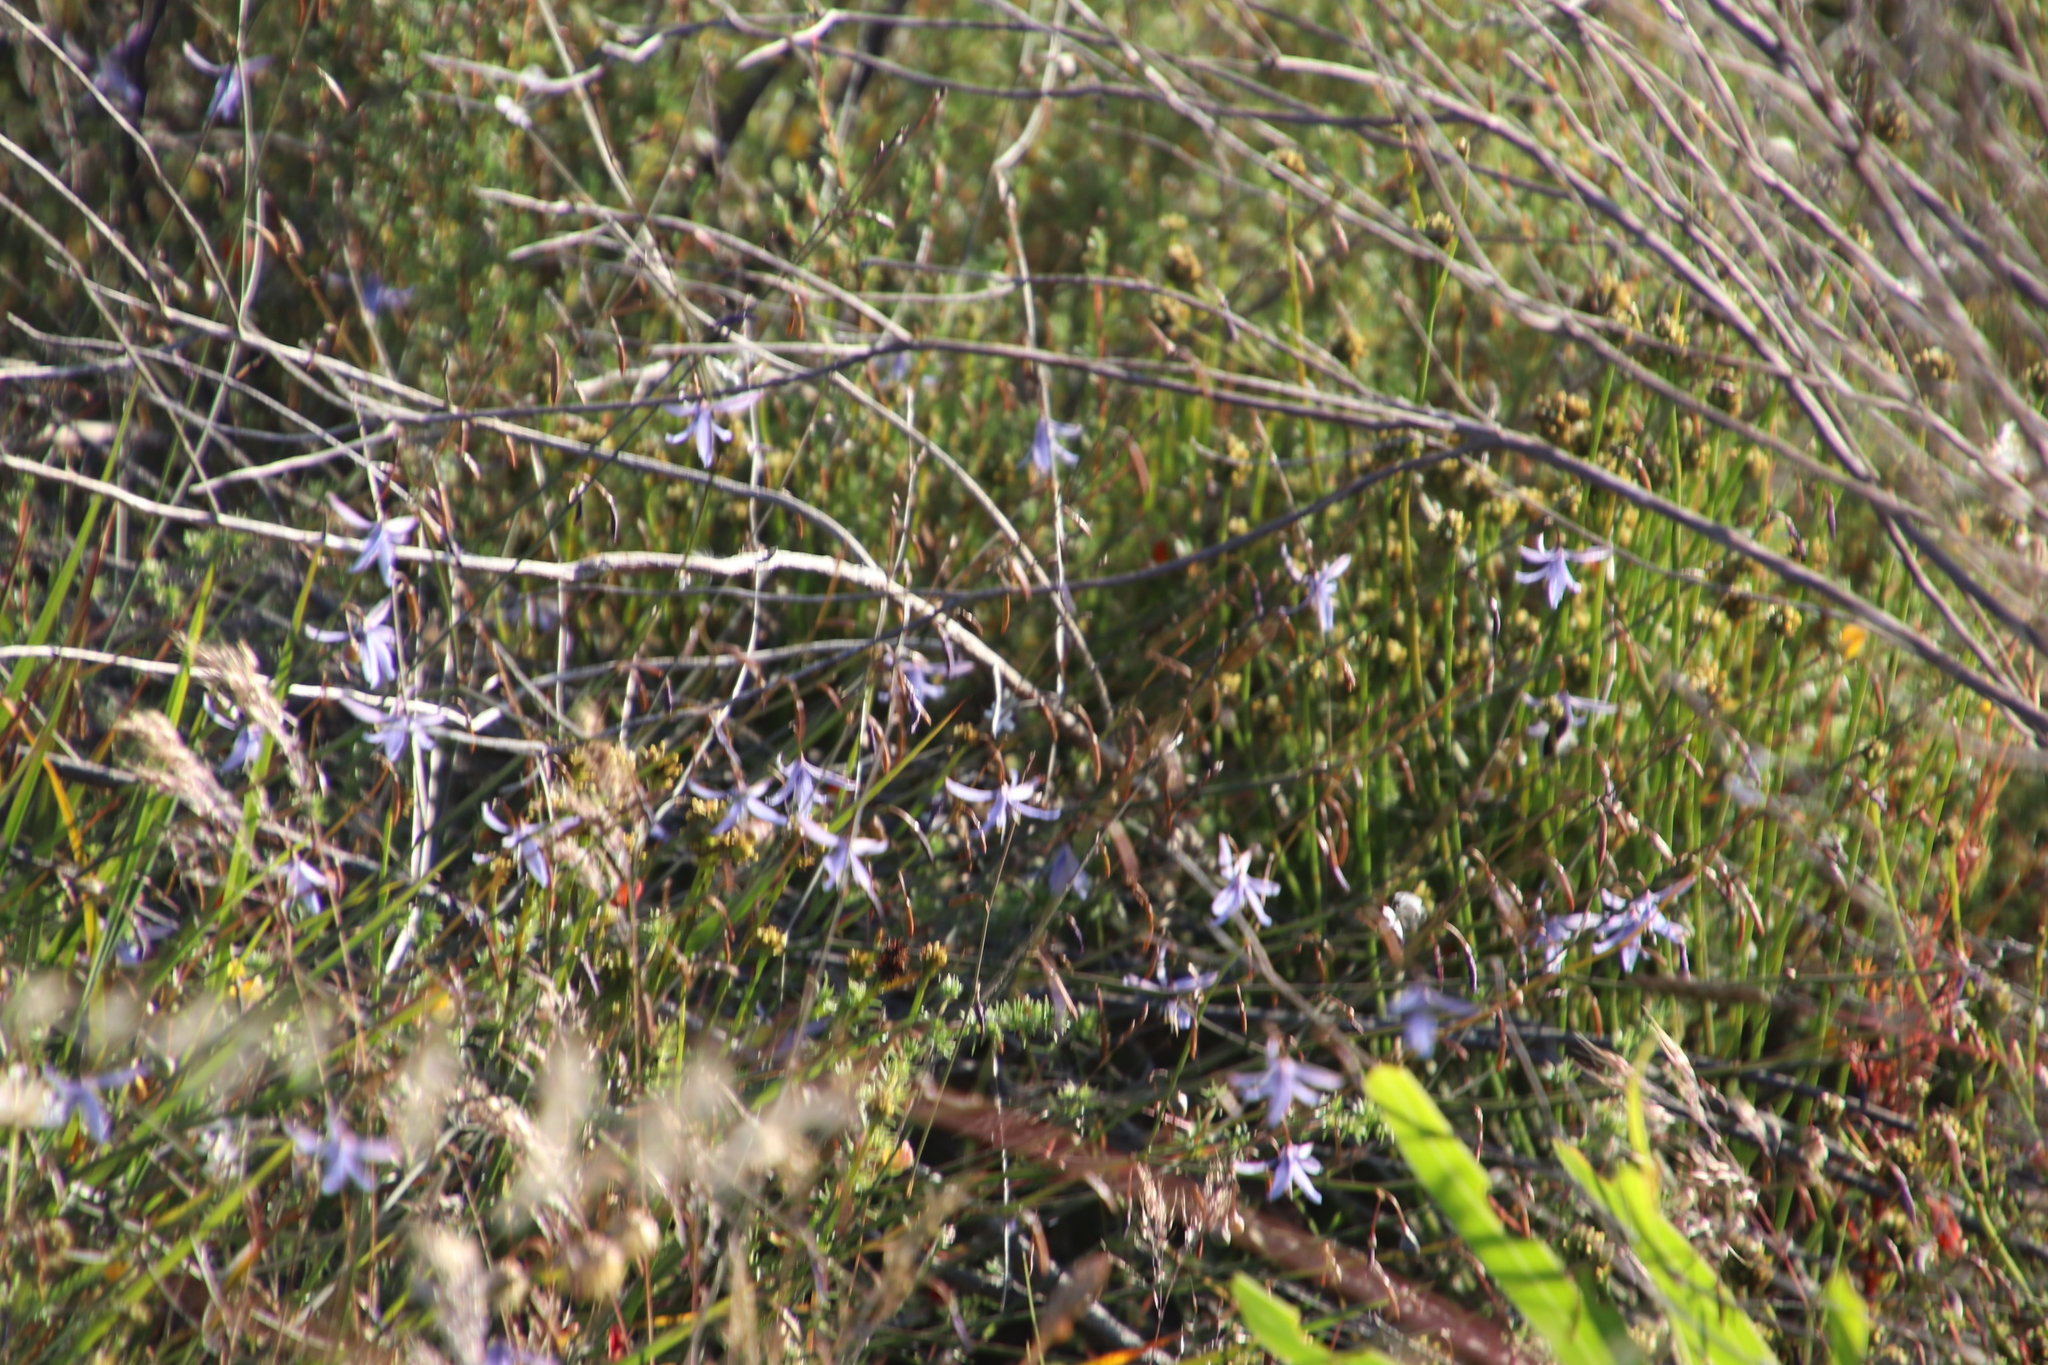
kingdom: Plantae
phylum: Tracheophyta
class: Liliopsida
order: Asparagales
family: Asphodelaceae
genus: Caesia
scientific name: Caesia contorta
